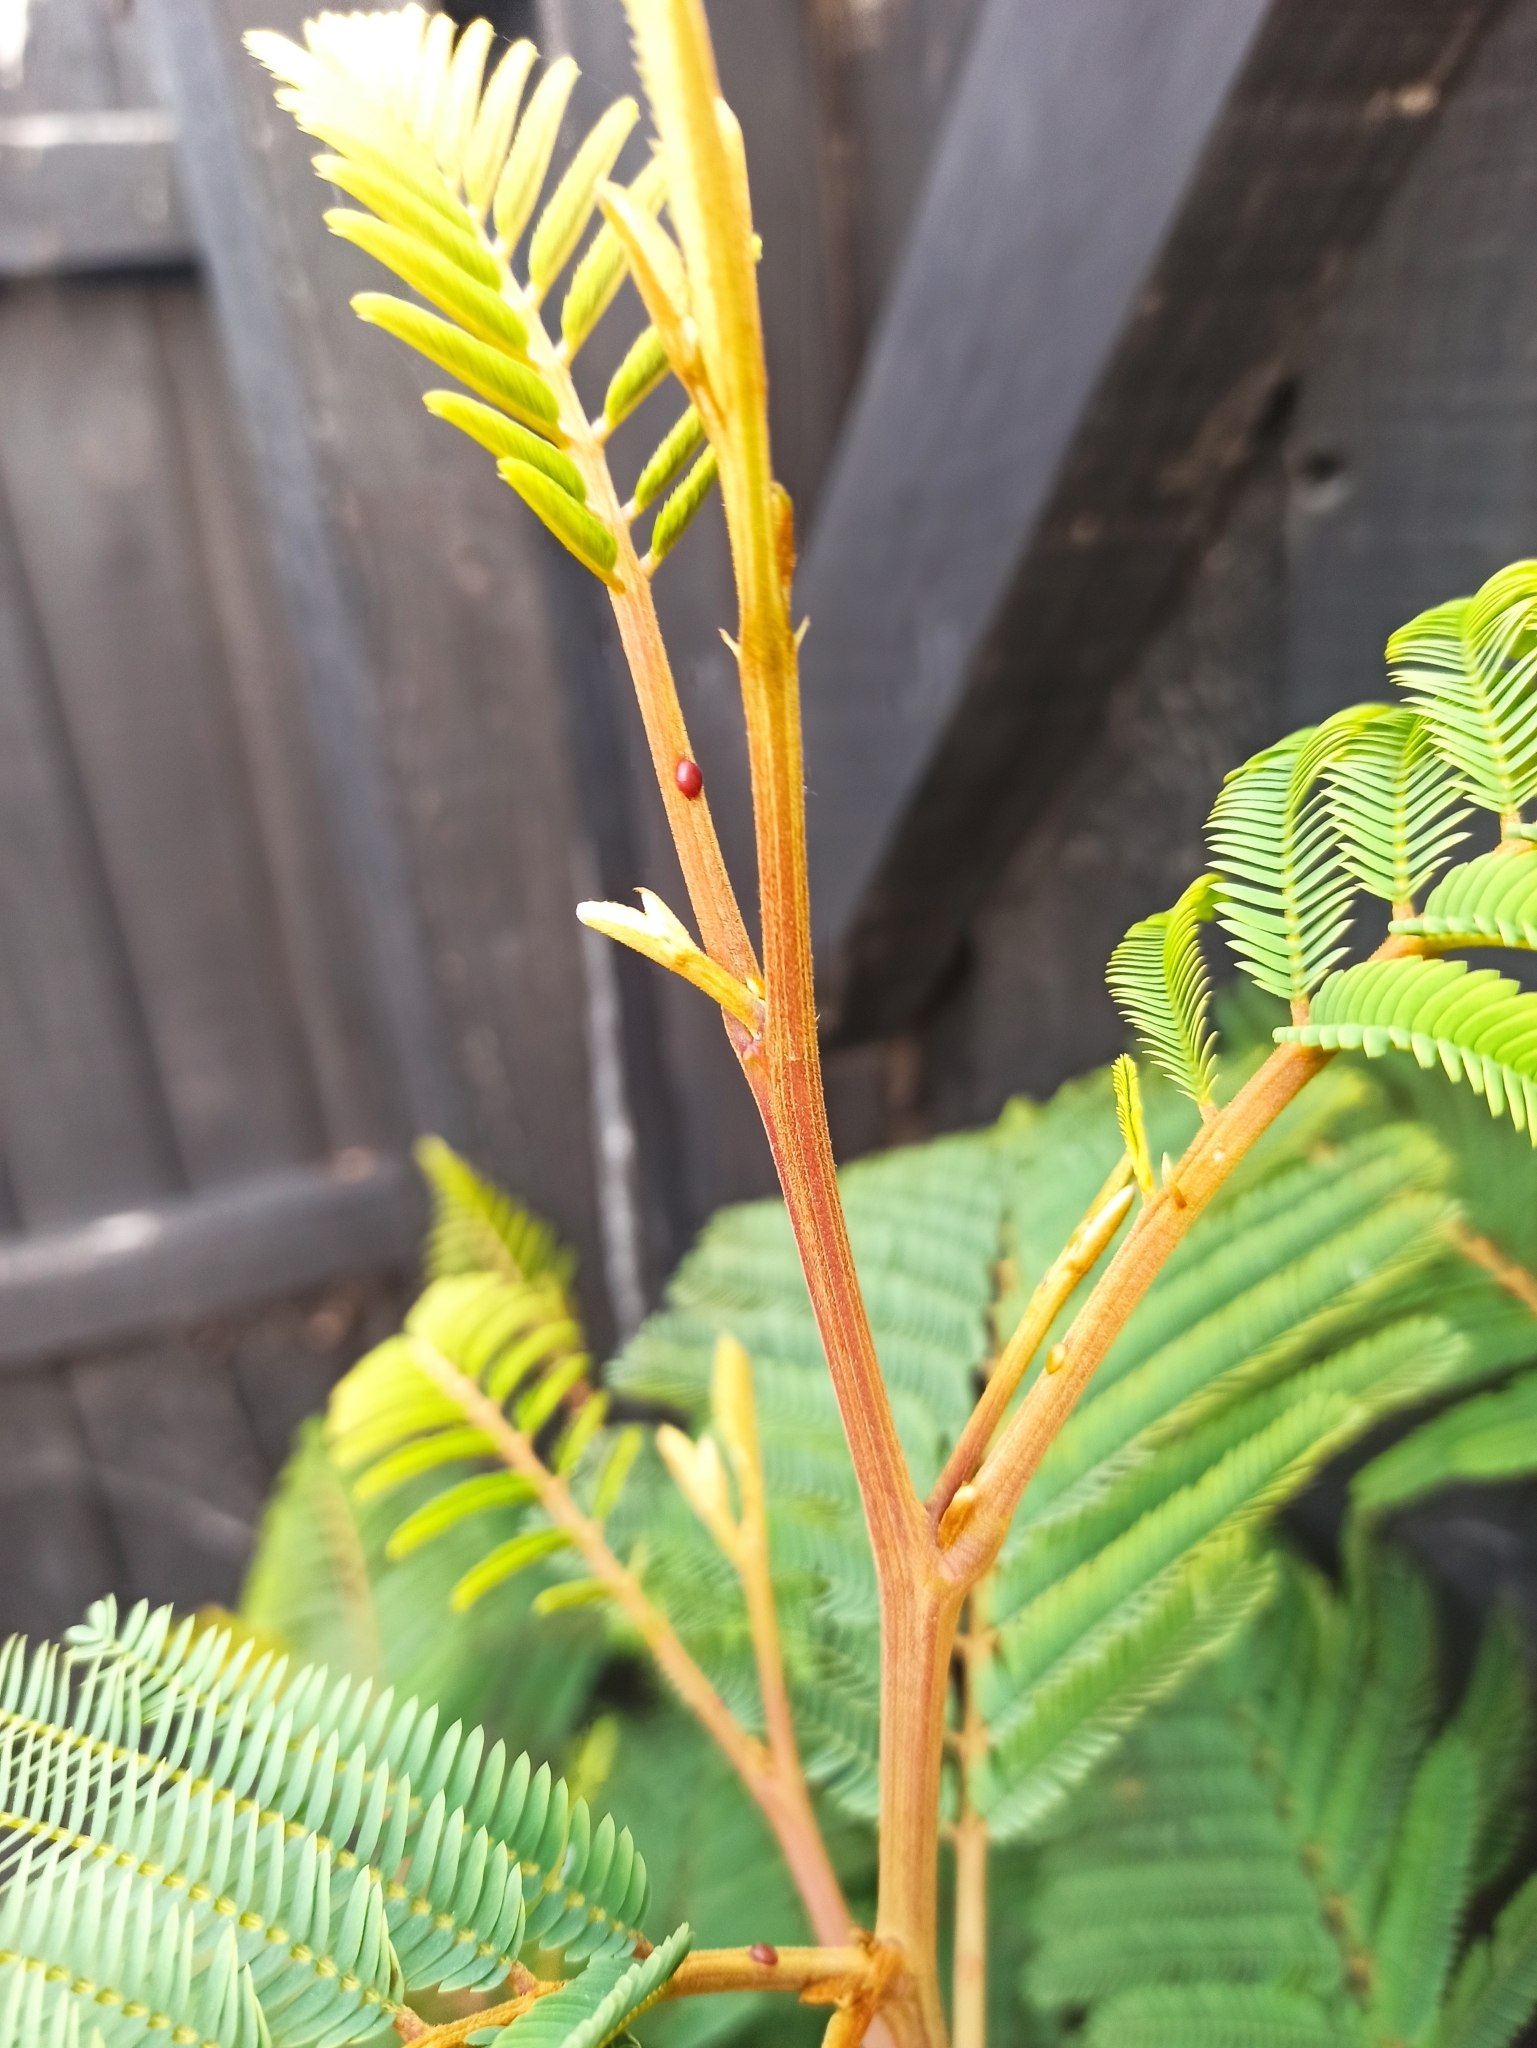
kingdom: Plantae
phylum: Tracheophyta
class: Magnoliopsida
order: Fabales
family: Fabaceae
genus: Paraserianthes
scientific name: Paraserianthes lophantha
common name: Plume albizia
